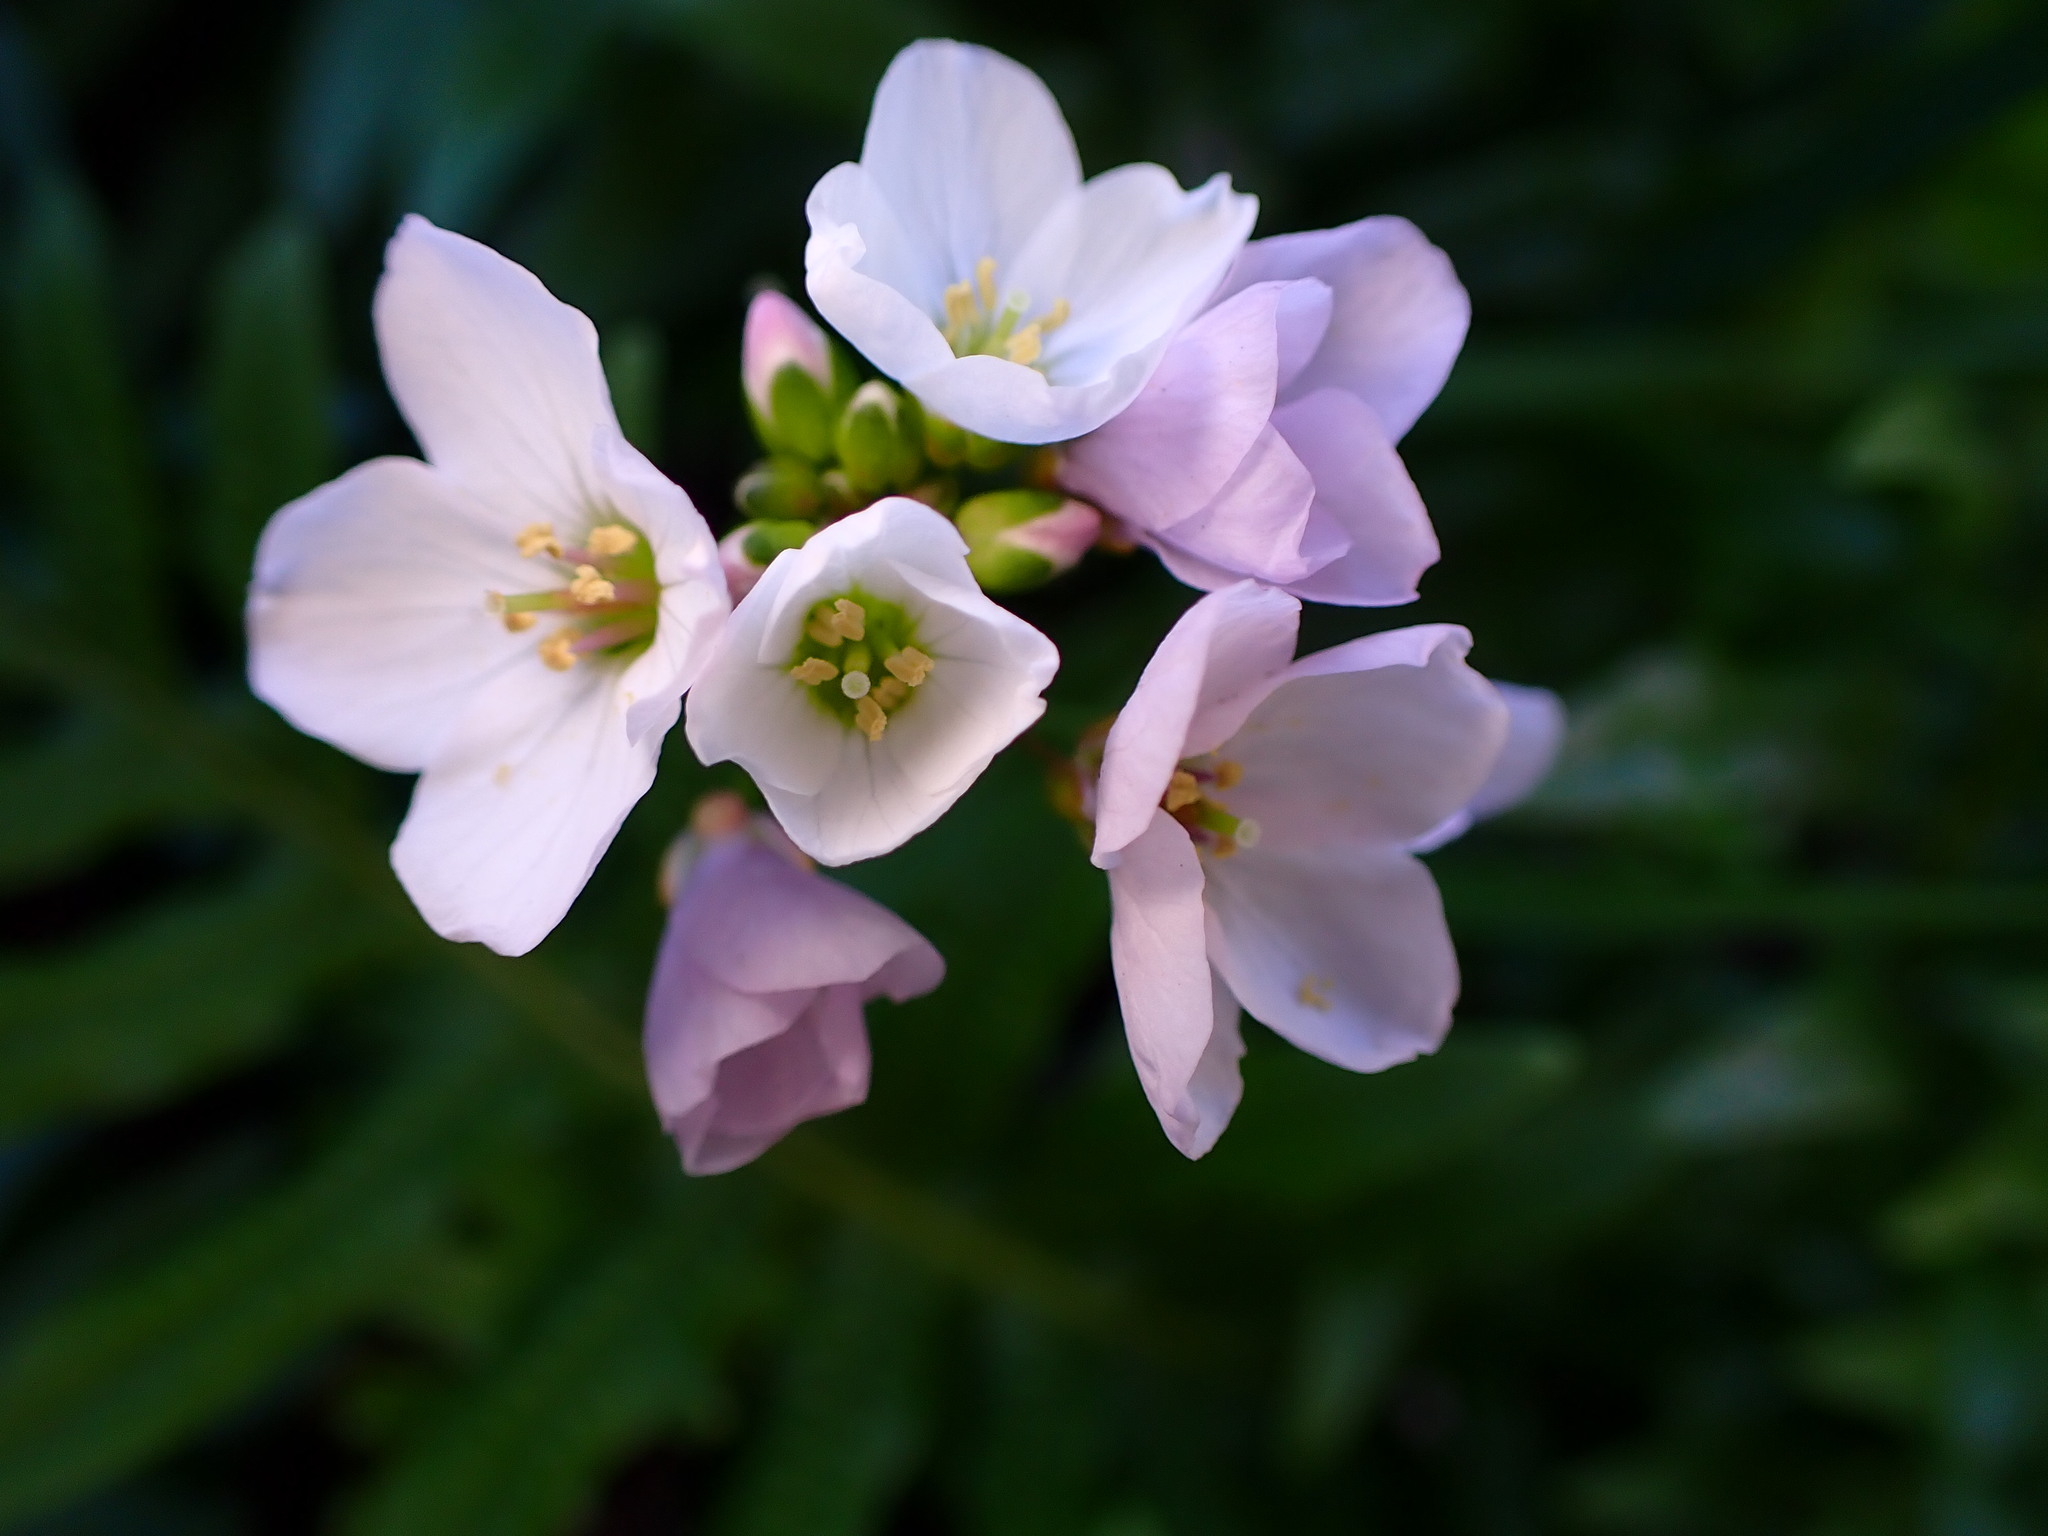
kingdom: Plantae
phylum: Tracheophyta
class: Magnoliopsida
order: Brassicales
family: Brassicaceae
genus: Cardamine
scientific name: Cardamine californica
